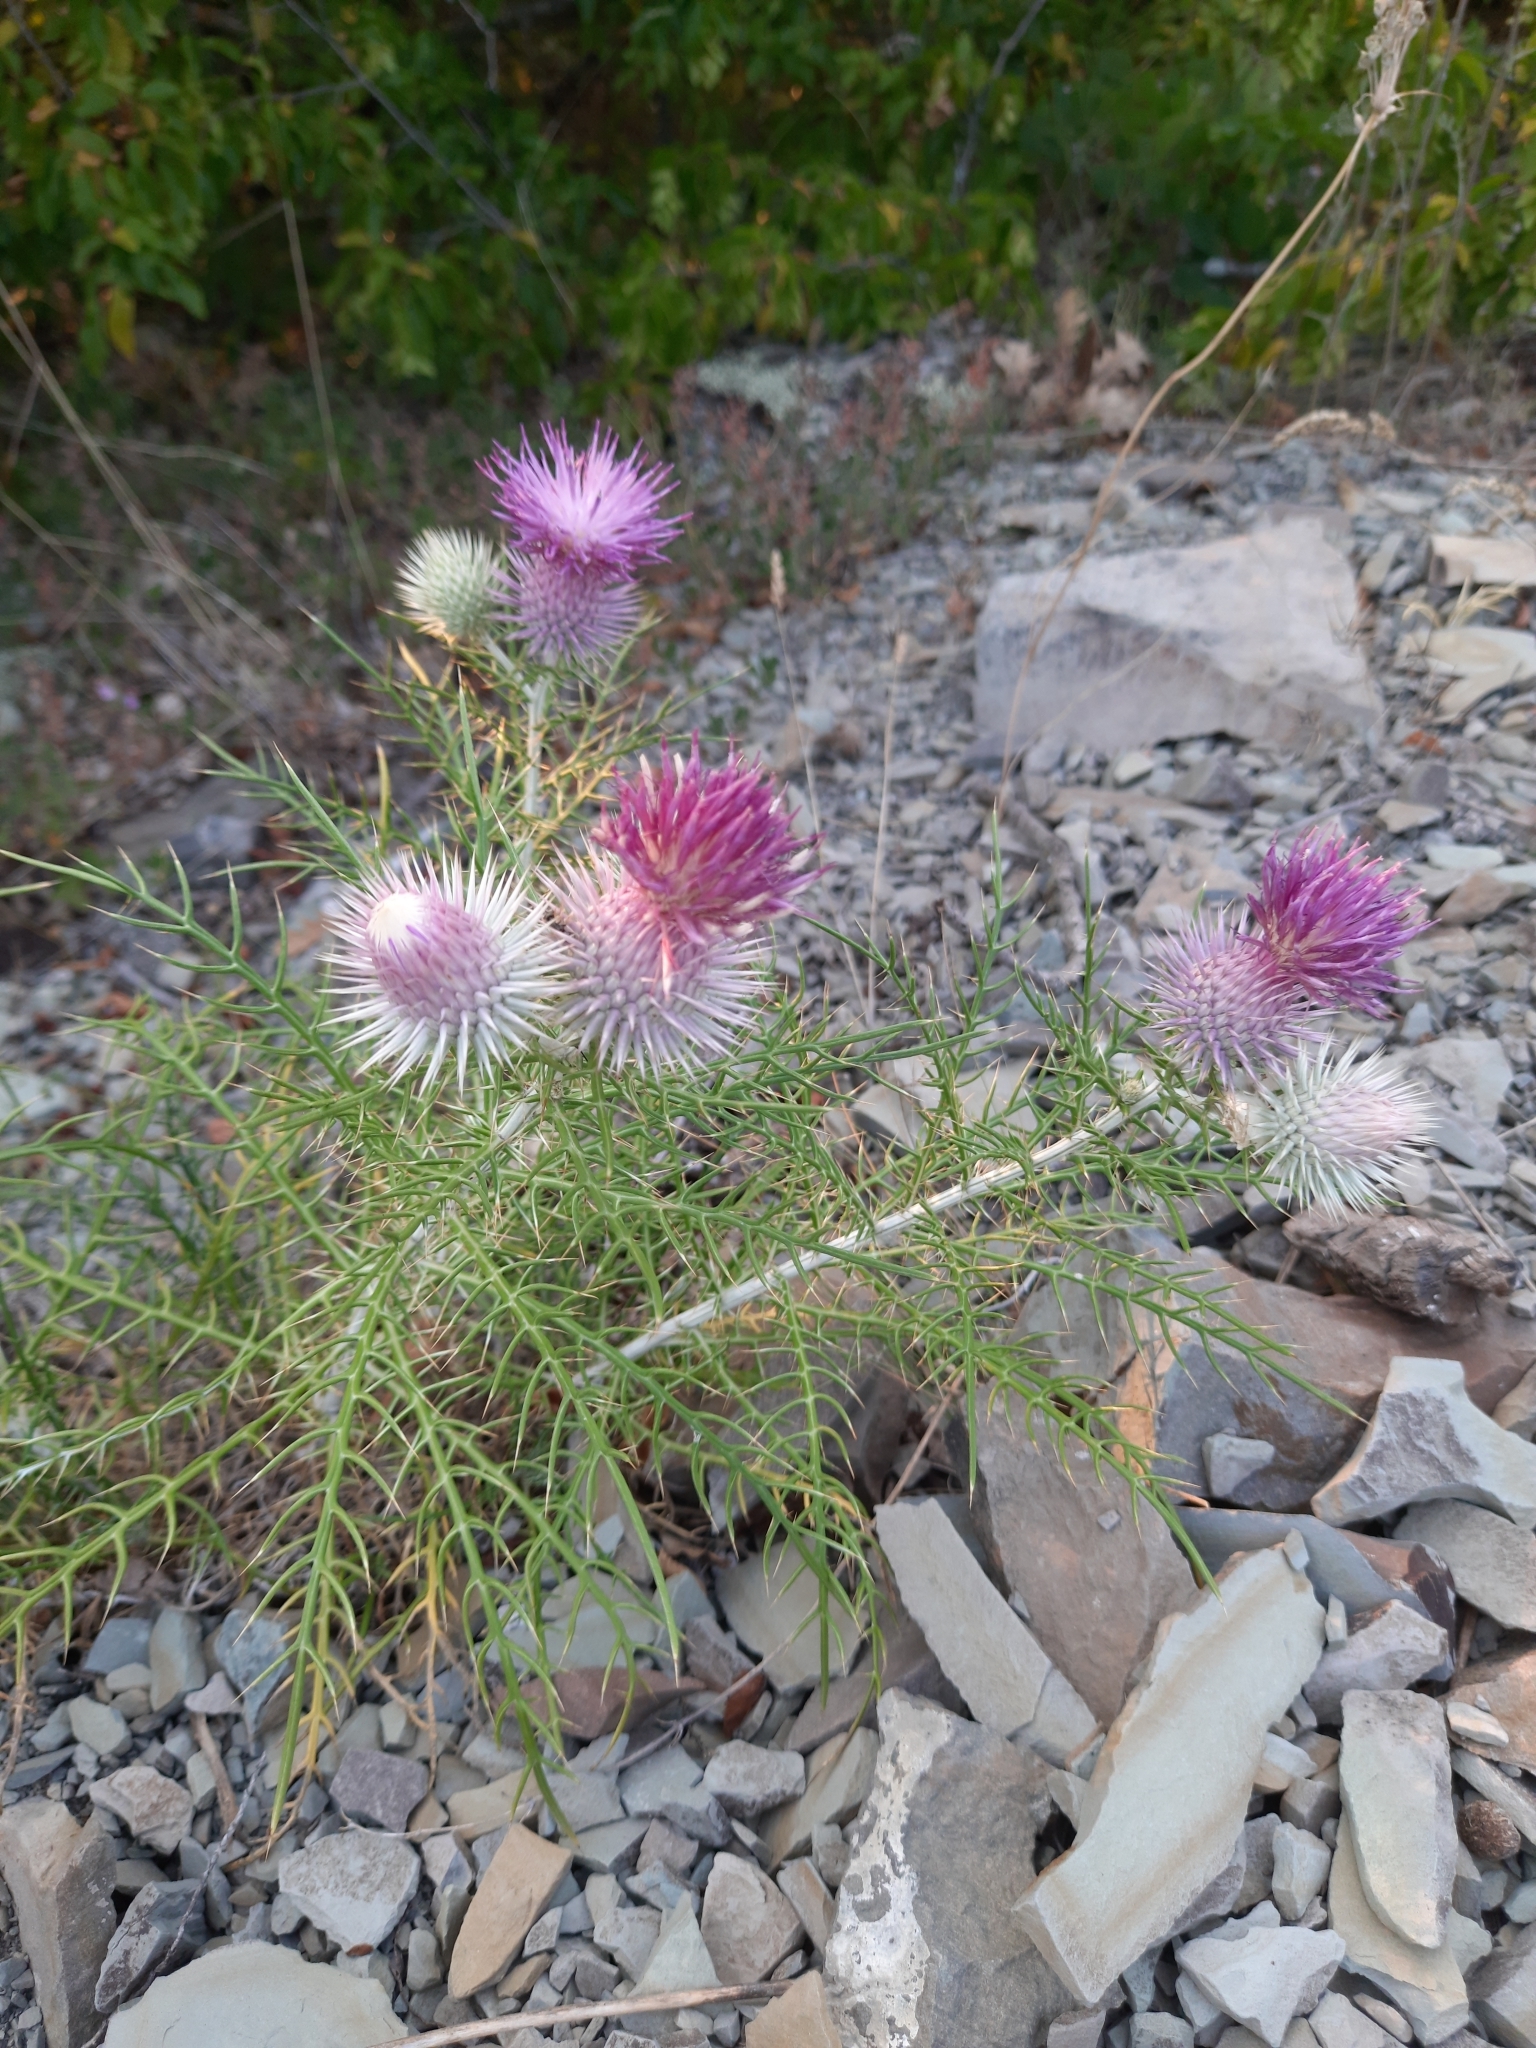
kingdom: Plantae
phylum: Tracheophyta
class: Magnoliopsida
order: Asterales
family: Asteraceae
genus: Ptilostemon
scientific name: Ptilostemon echinocephalus
